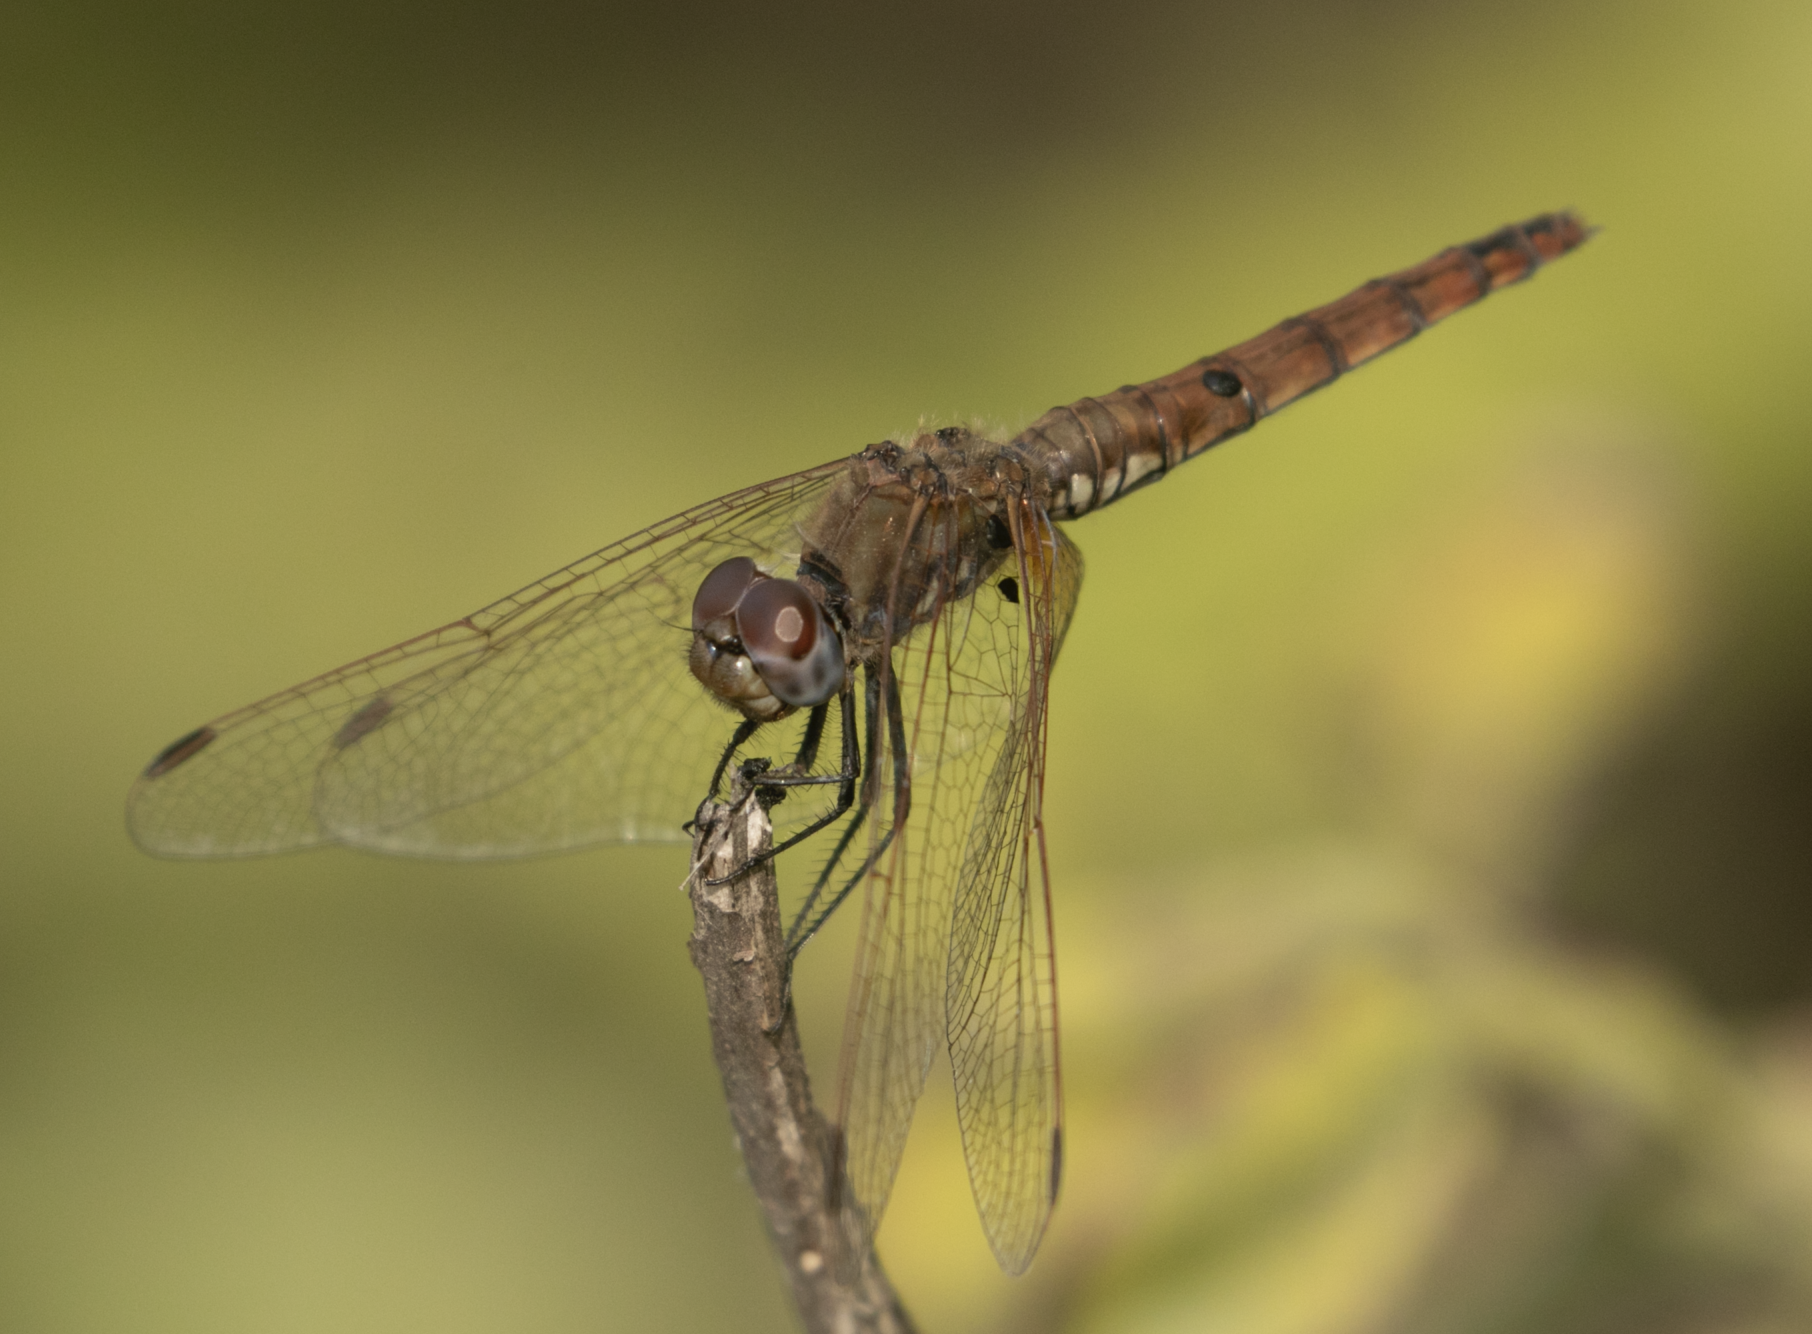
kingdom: Animalia
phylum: Arthropoda
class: Insecta
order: Odonata
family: Libellulidae
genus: Trithemis
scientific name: Trithemis annulata
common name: Violet dropwing
